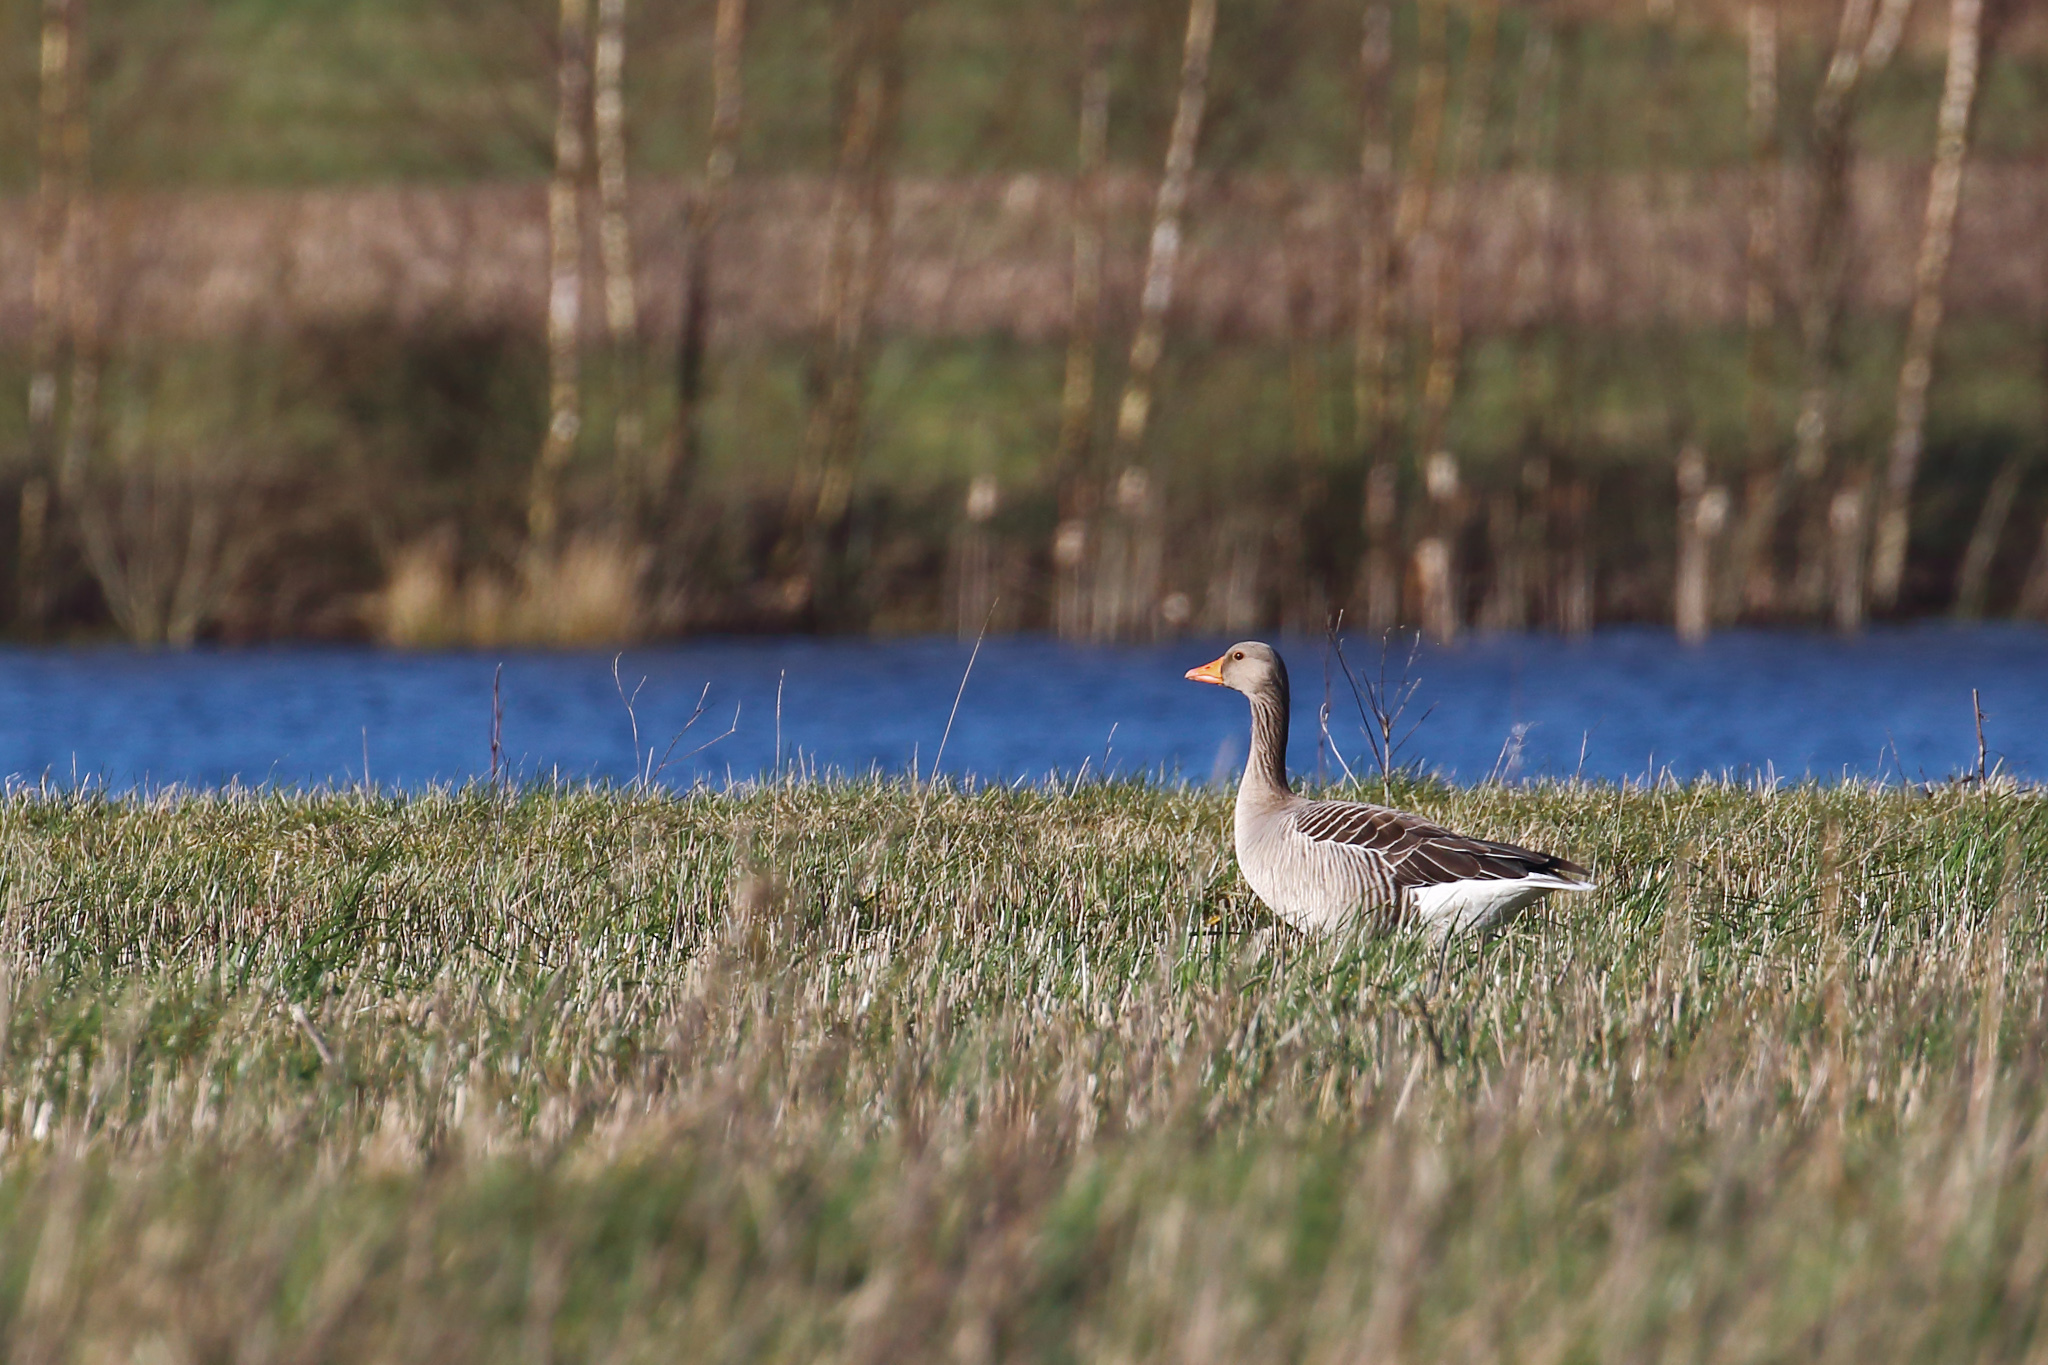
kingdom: Animalia
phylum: Chordata
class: Aves
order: Anseriformes
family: Anatidae
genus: Anser
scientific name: Anser anser
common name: Greylag goose
